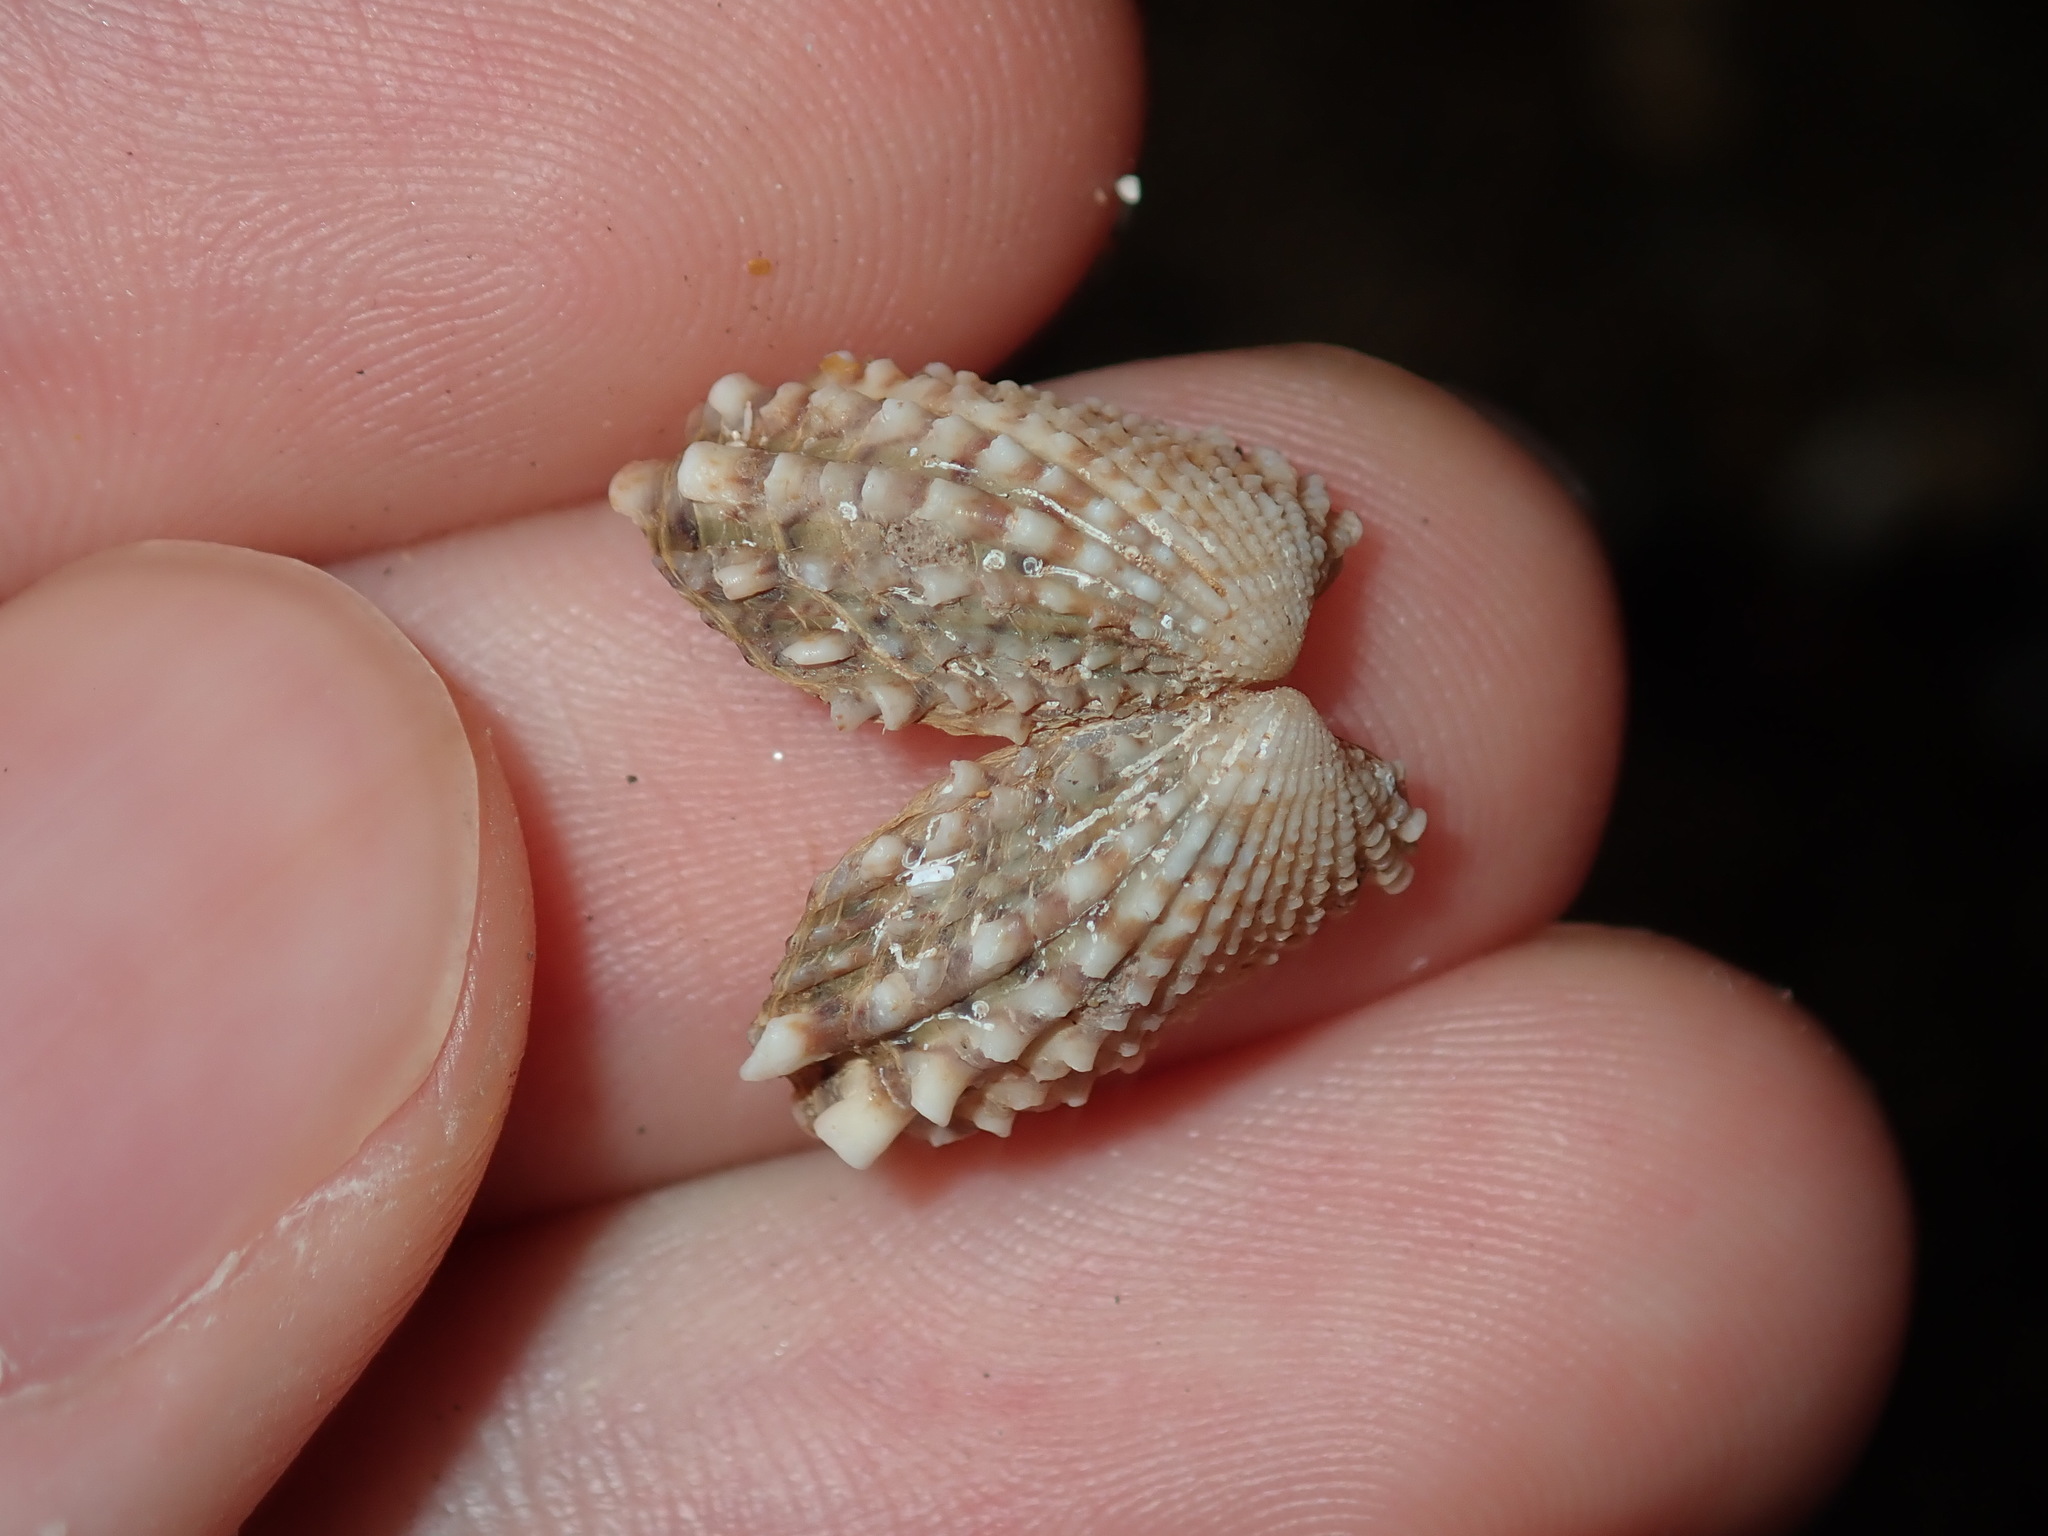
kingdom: Animalia
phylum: Mollusca
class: Bivalvia
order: Carditida
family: Carditidae
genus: Cardita
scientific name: Cardita aviculina
